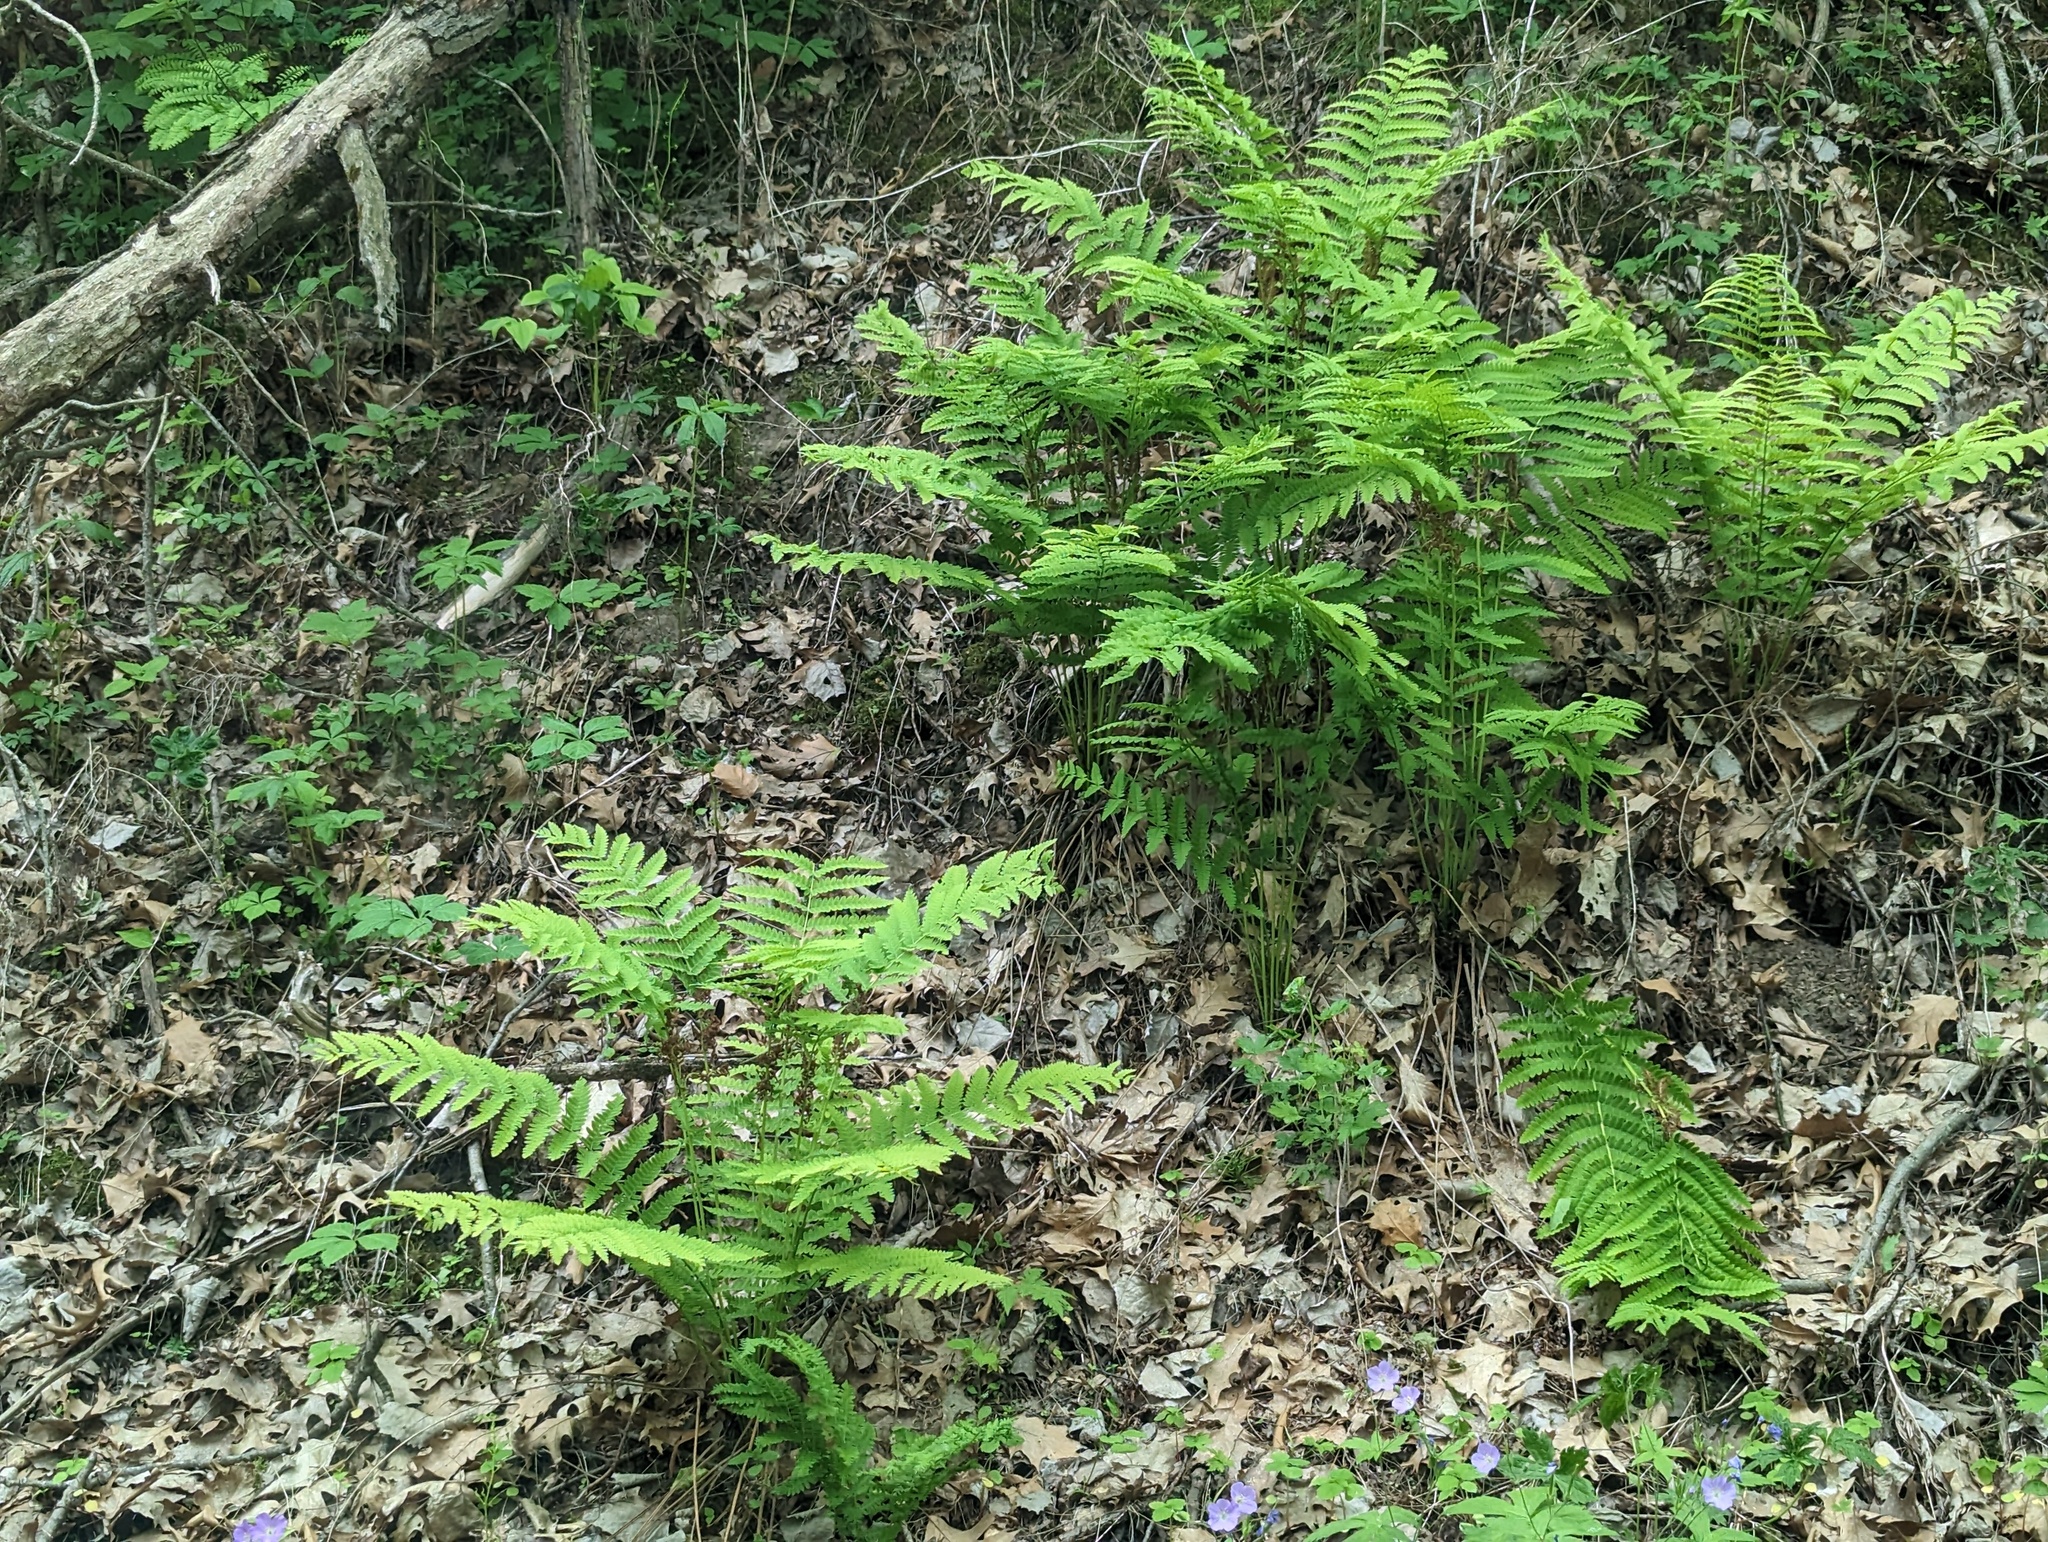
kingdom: Plantae
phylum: Tracheophyta
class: Polypodiopsida
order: Osmundales
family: Osmundaceae
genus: Claytosmunda
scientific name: Claytosmunda claytoniana
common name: Clayton's fern
